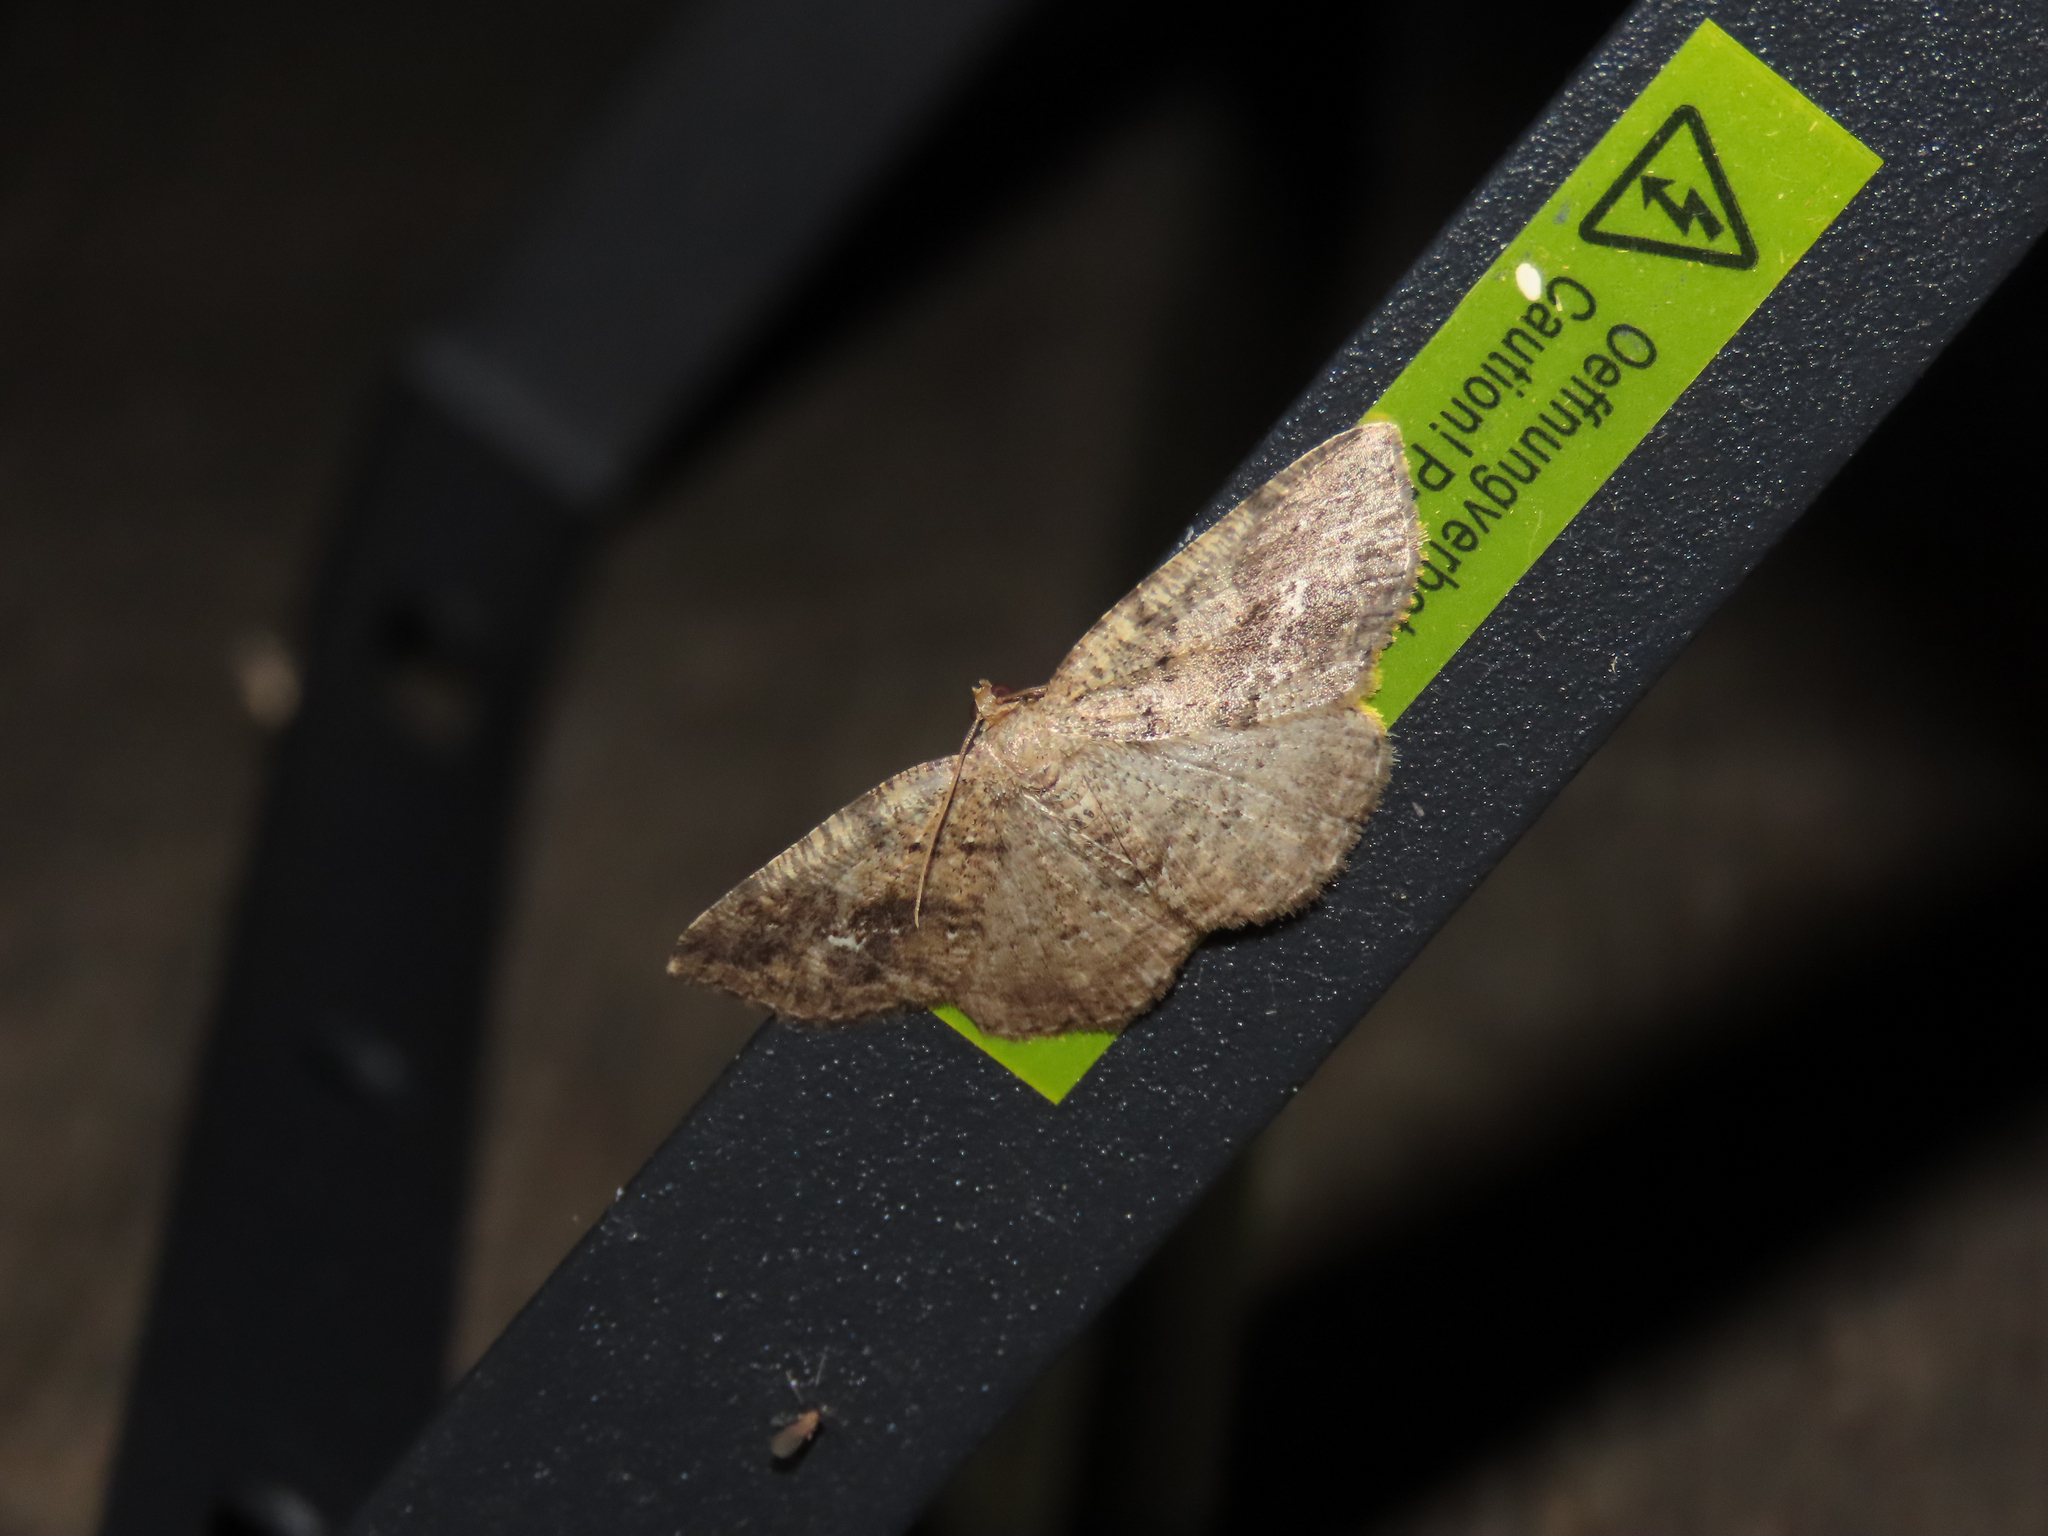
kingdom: Animalia
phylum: Arthropoda
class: Insecta
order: Lepidoptera
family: Geometridae
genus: Homochlodes
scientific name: Homochlodes fritillaria
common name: Pale homochlodes
